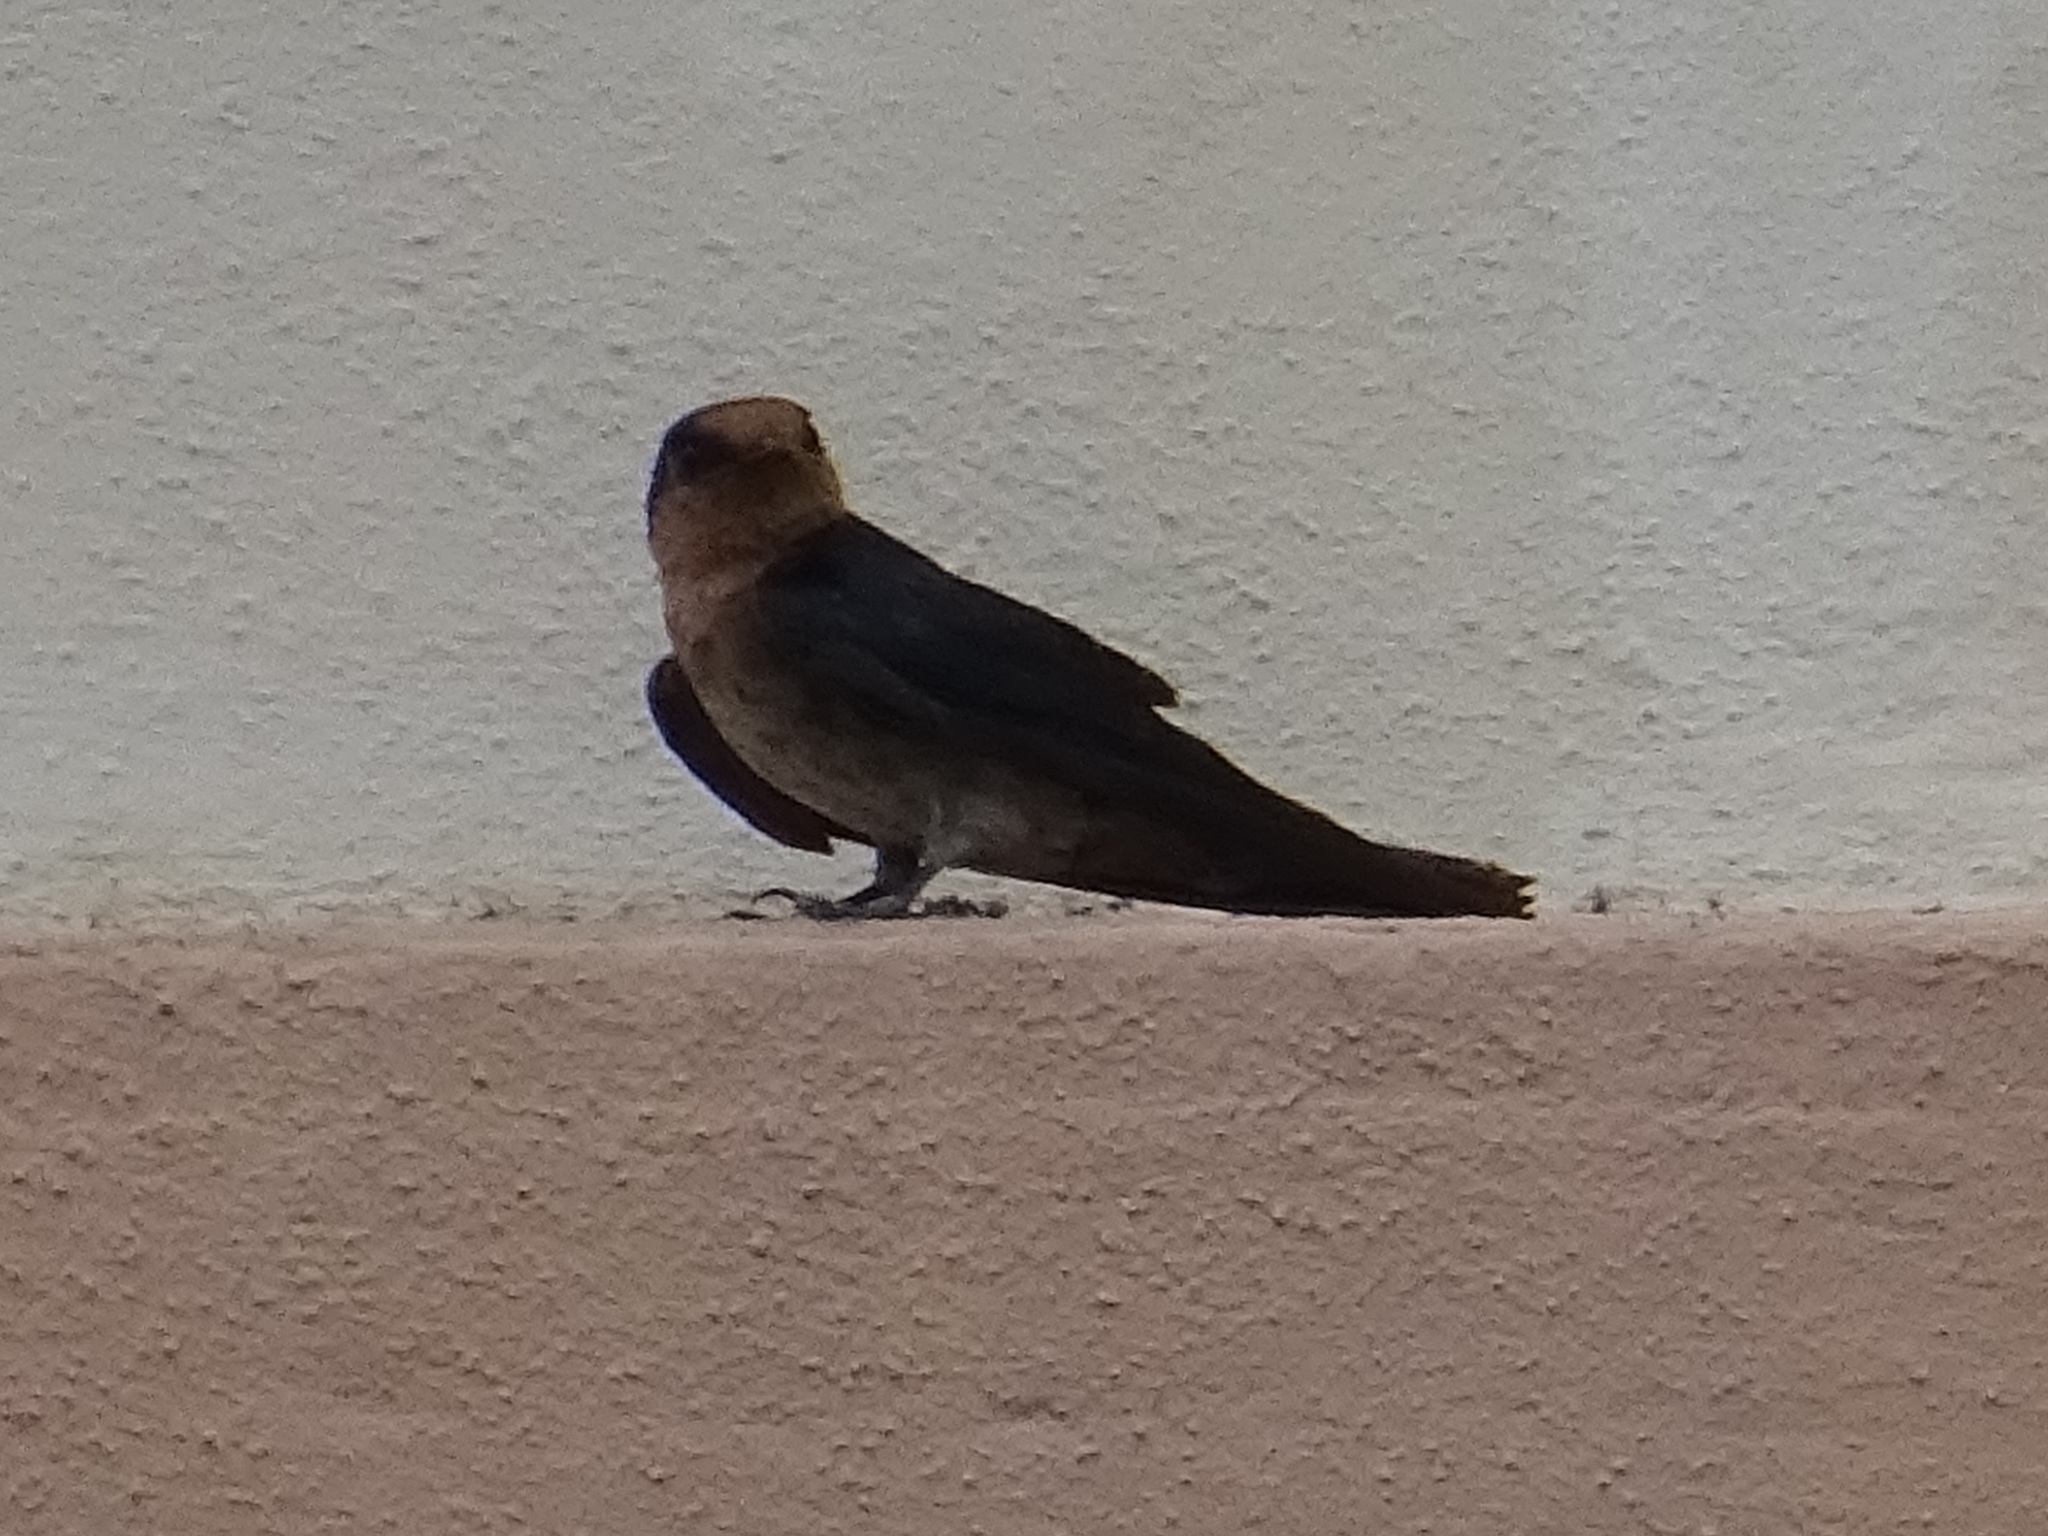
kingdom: Animalia
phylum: Chordata
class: Aves
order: Passeriformes
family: Hirundinidae
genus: Hirundo
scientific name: Hirundo tahitica
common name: Pacific swallow
